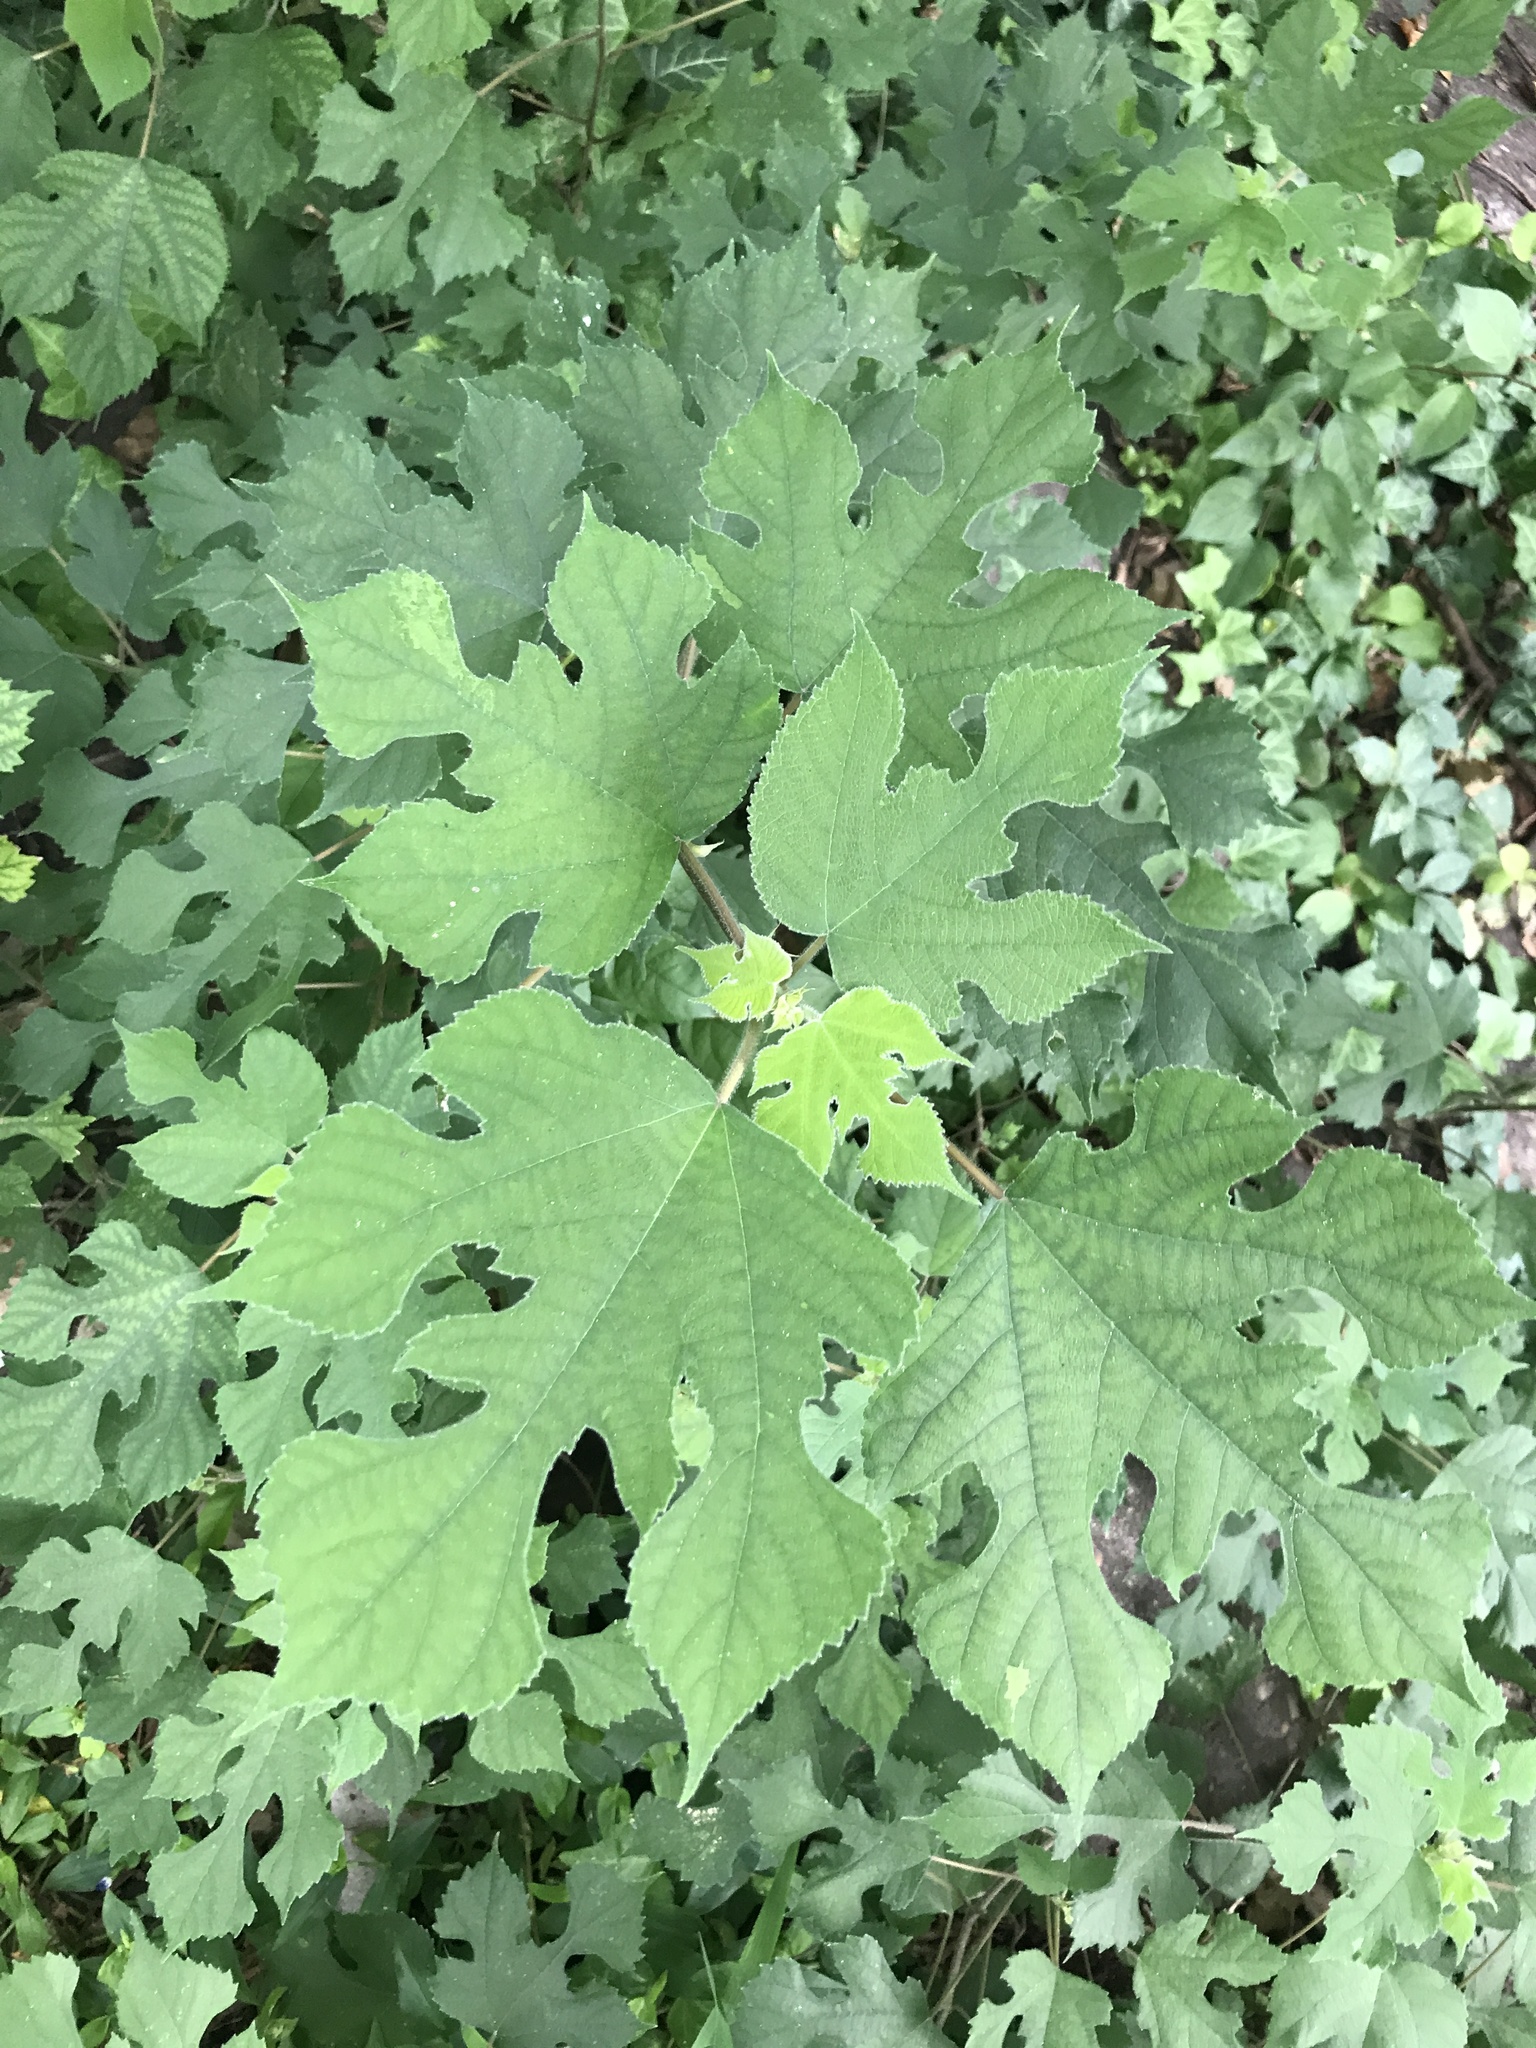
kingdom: Plantae
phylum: Tracheophyta
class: Magnoliopsida
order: Rosales
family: Moraceae
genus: Broussonetia
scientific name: Broussonetia papyrifera
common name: Paper mulberry
